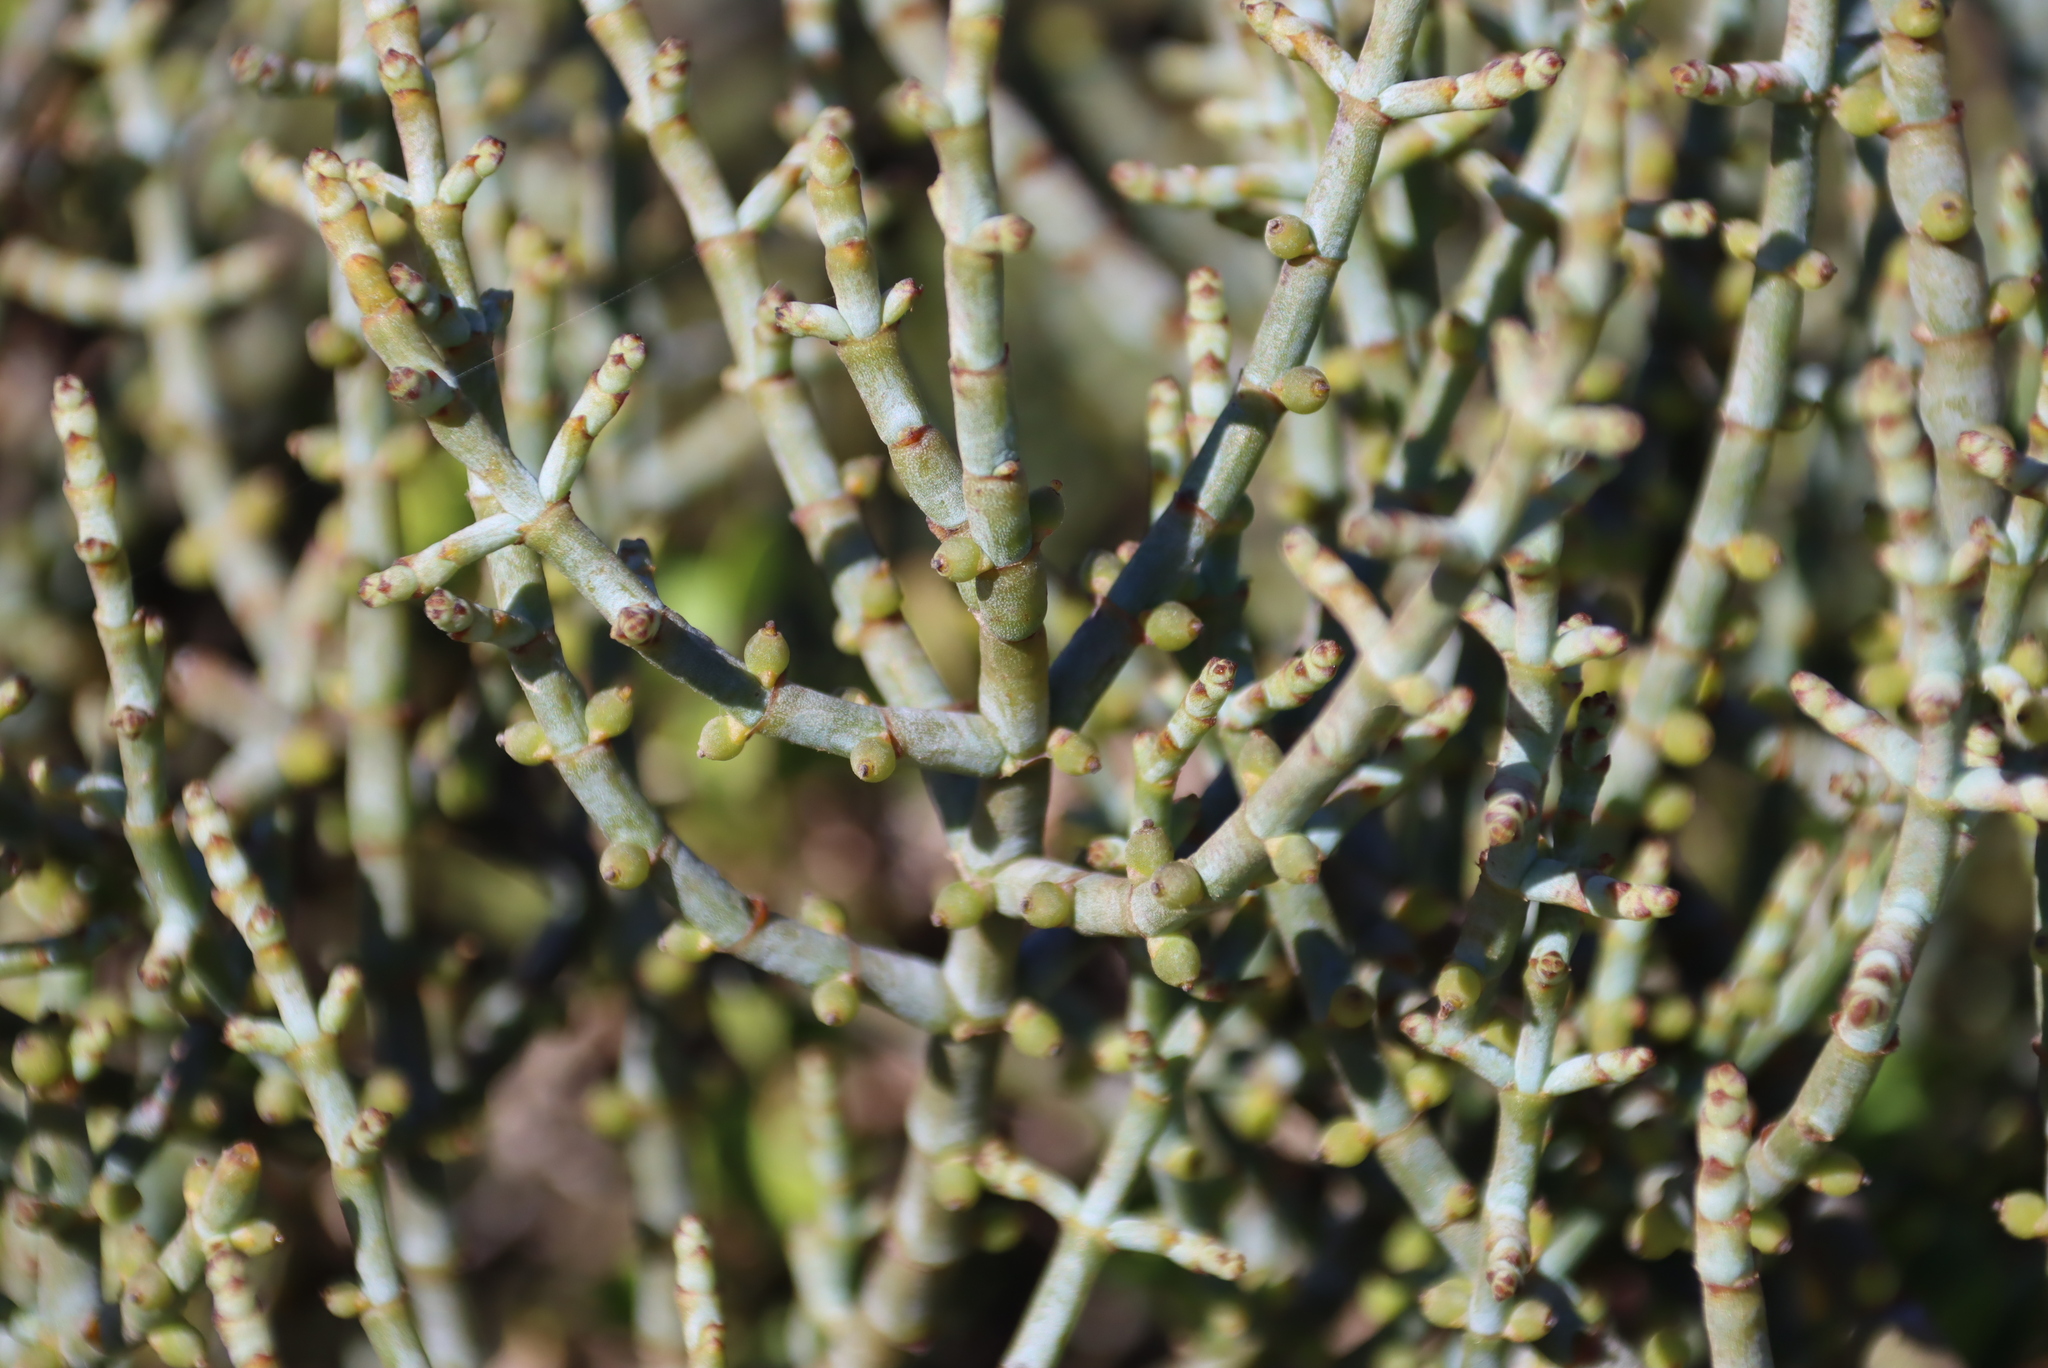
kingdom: Plantae
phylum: Tracheophyta
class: Magnoliopsida
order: Santalales
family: Viscaceae
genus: Viscum
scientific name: Viscum capense
